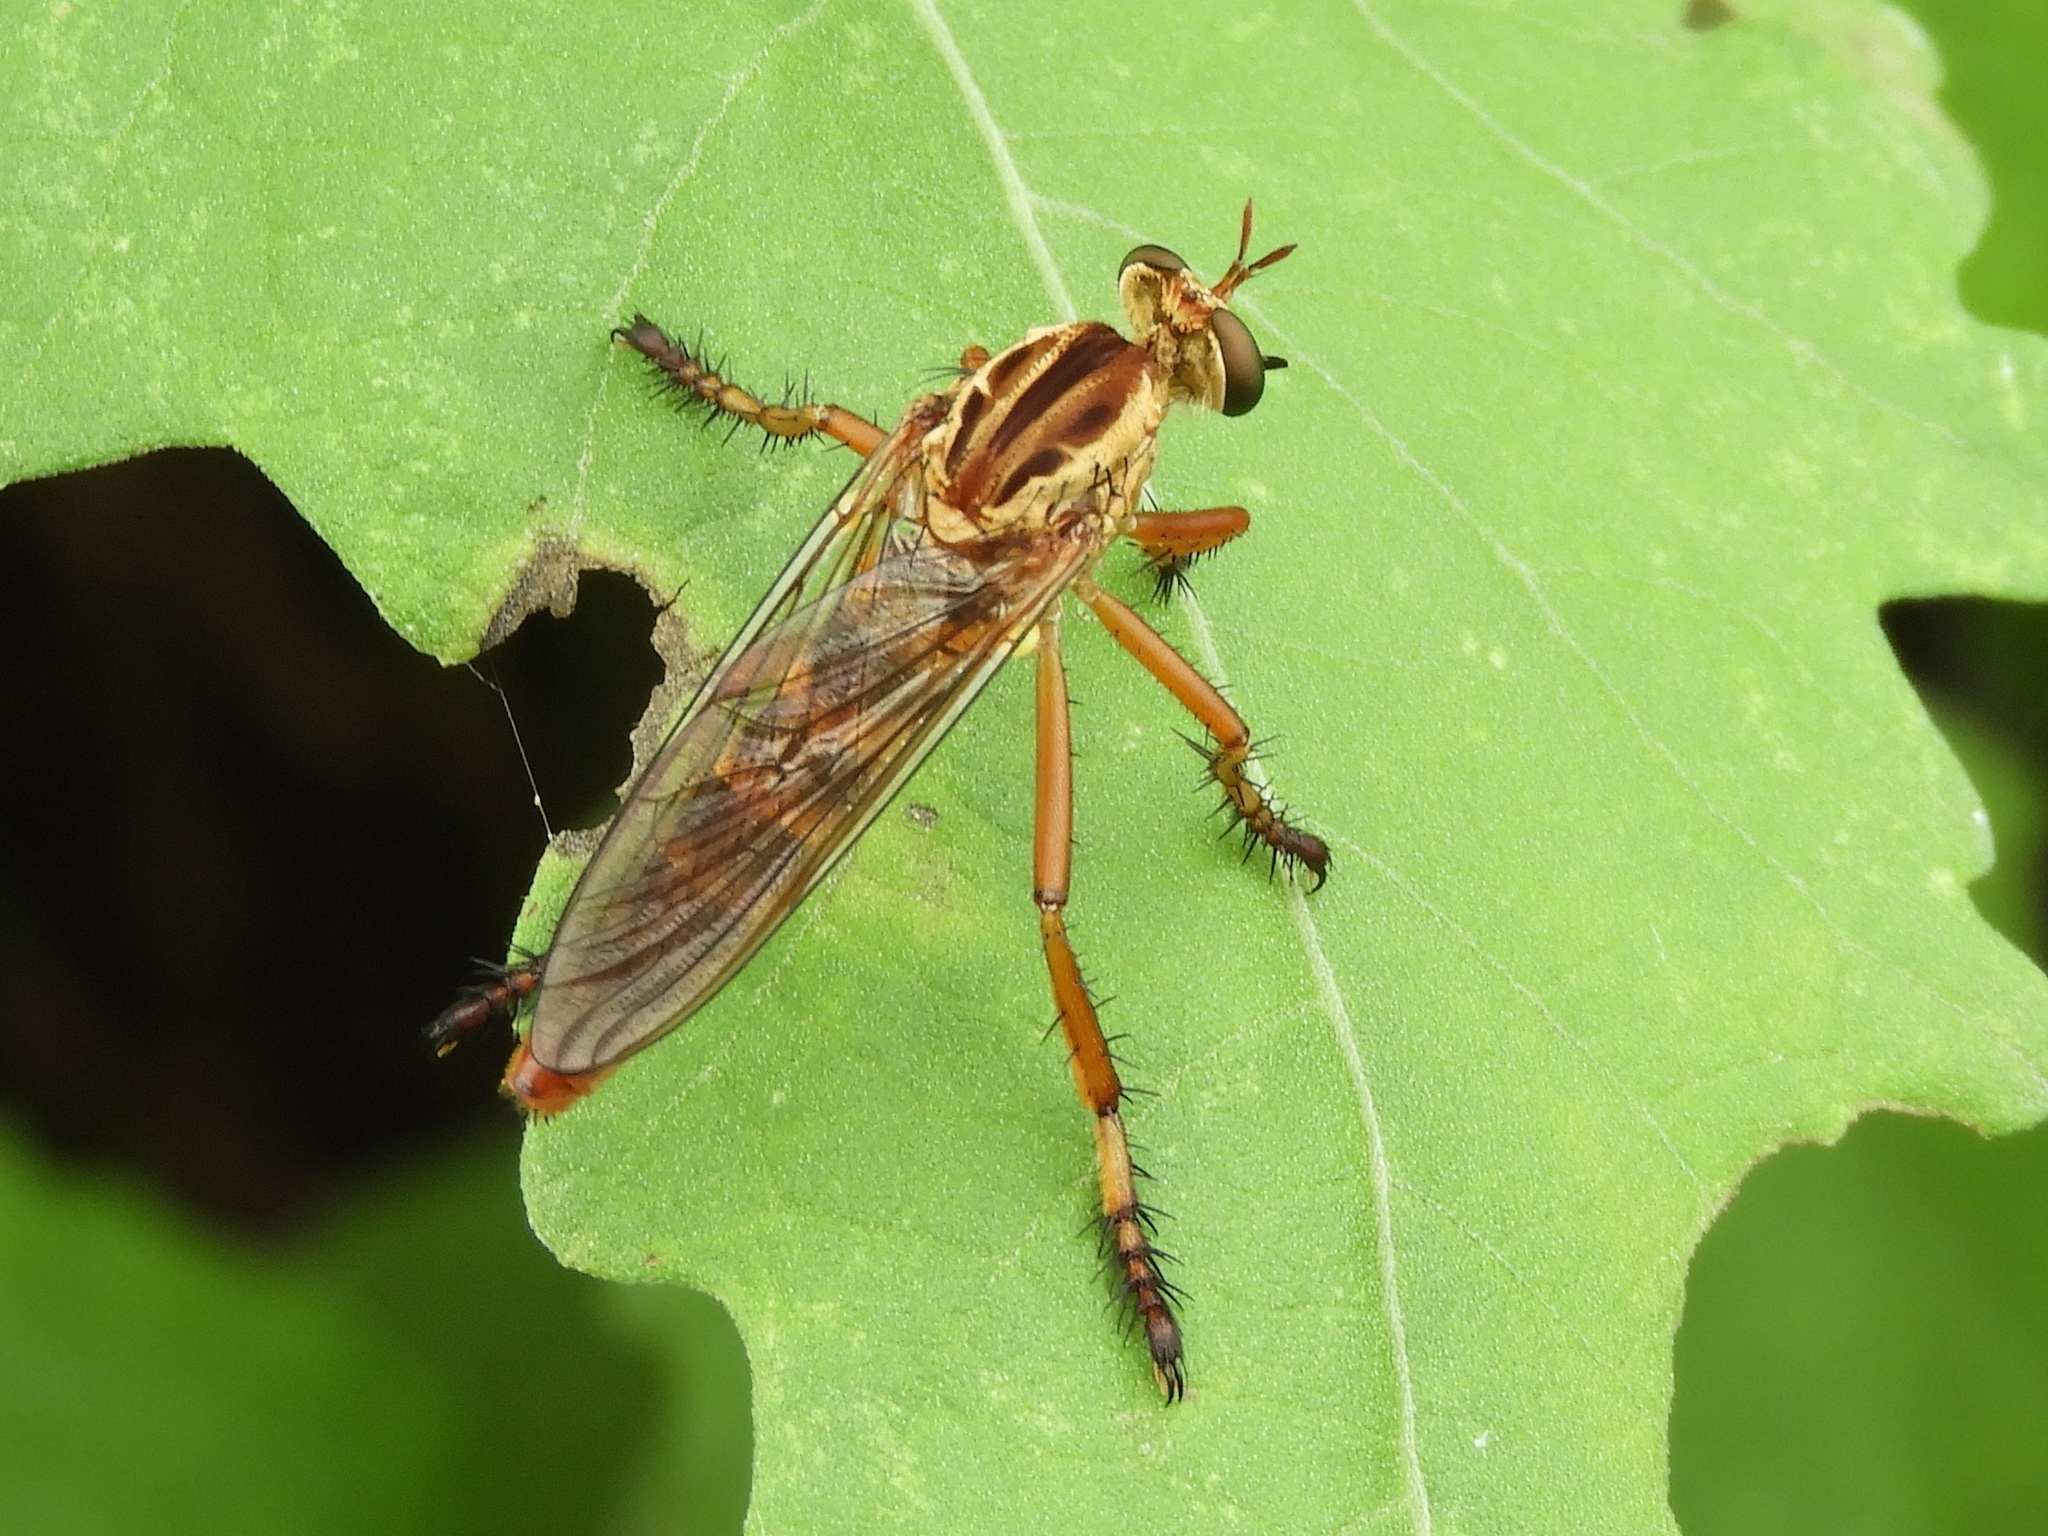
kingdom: Animalia
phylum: Arthropoda
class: Insecta
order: Diptera
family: Asilidae
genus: Diogmites
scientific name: Diogmites
